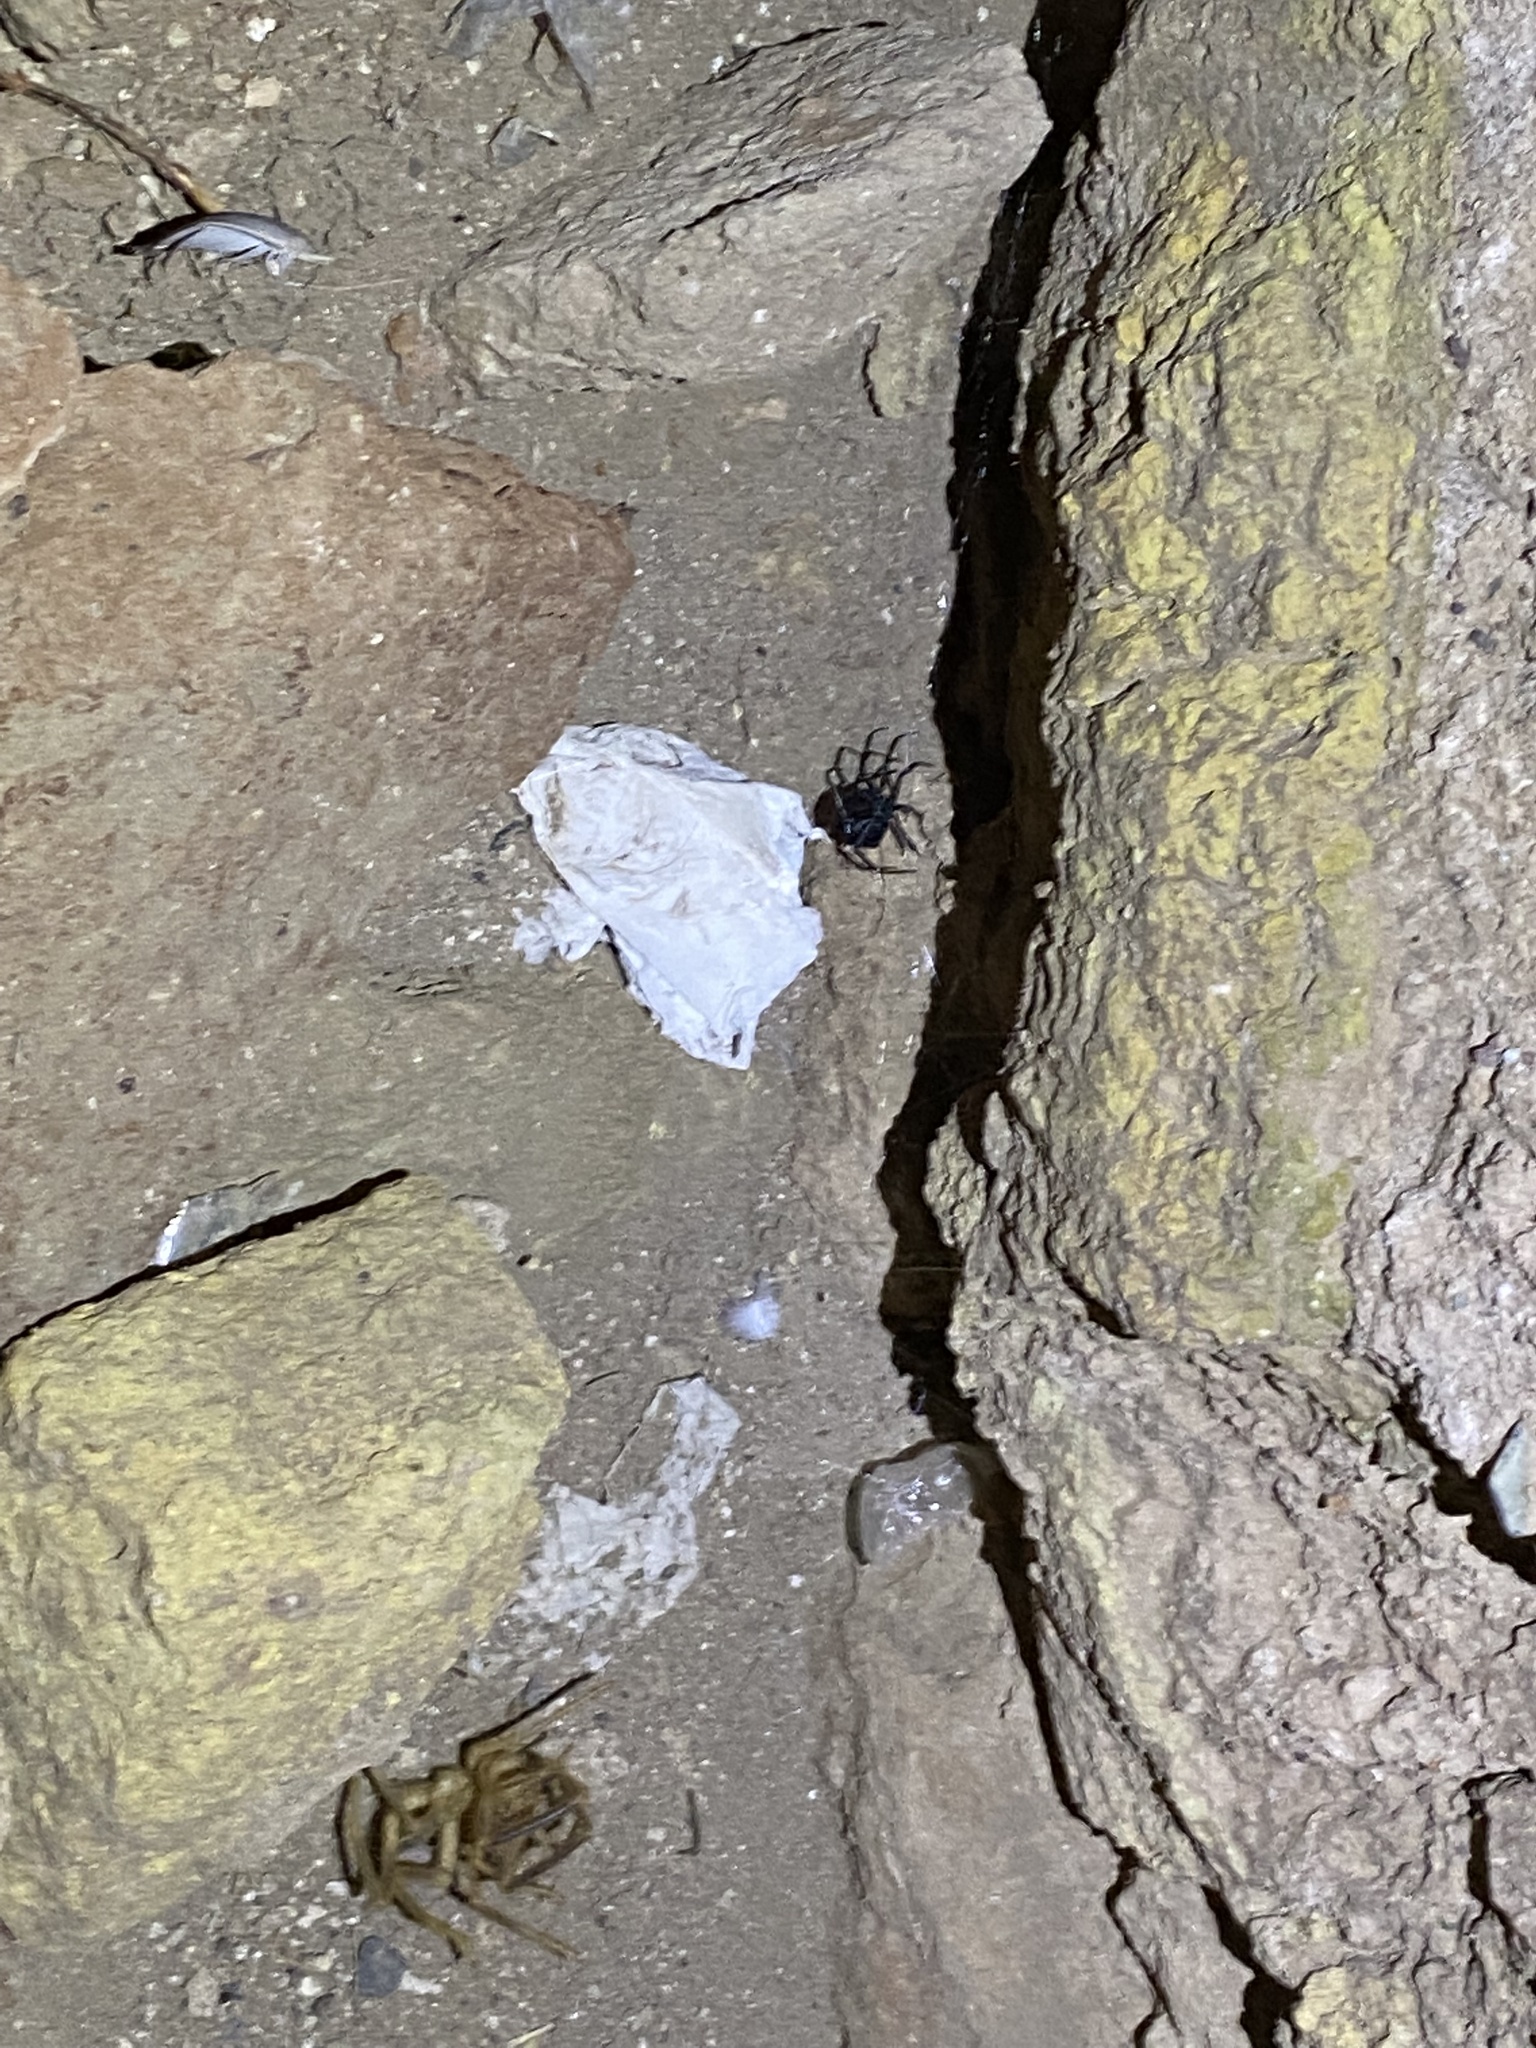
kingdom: Animalia
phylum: Arthropoda
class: Arachnida
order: Araneae
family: Theridiidae
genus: Latrodectus
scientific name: Latrodectus tredecimguttatus
